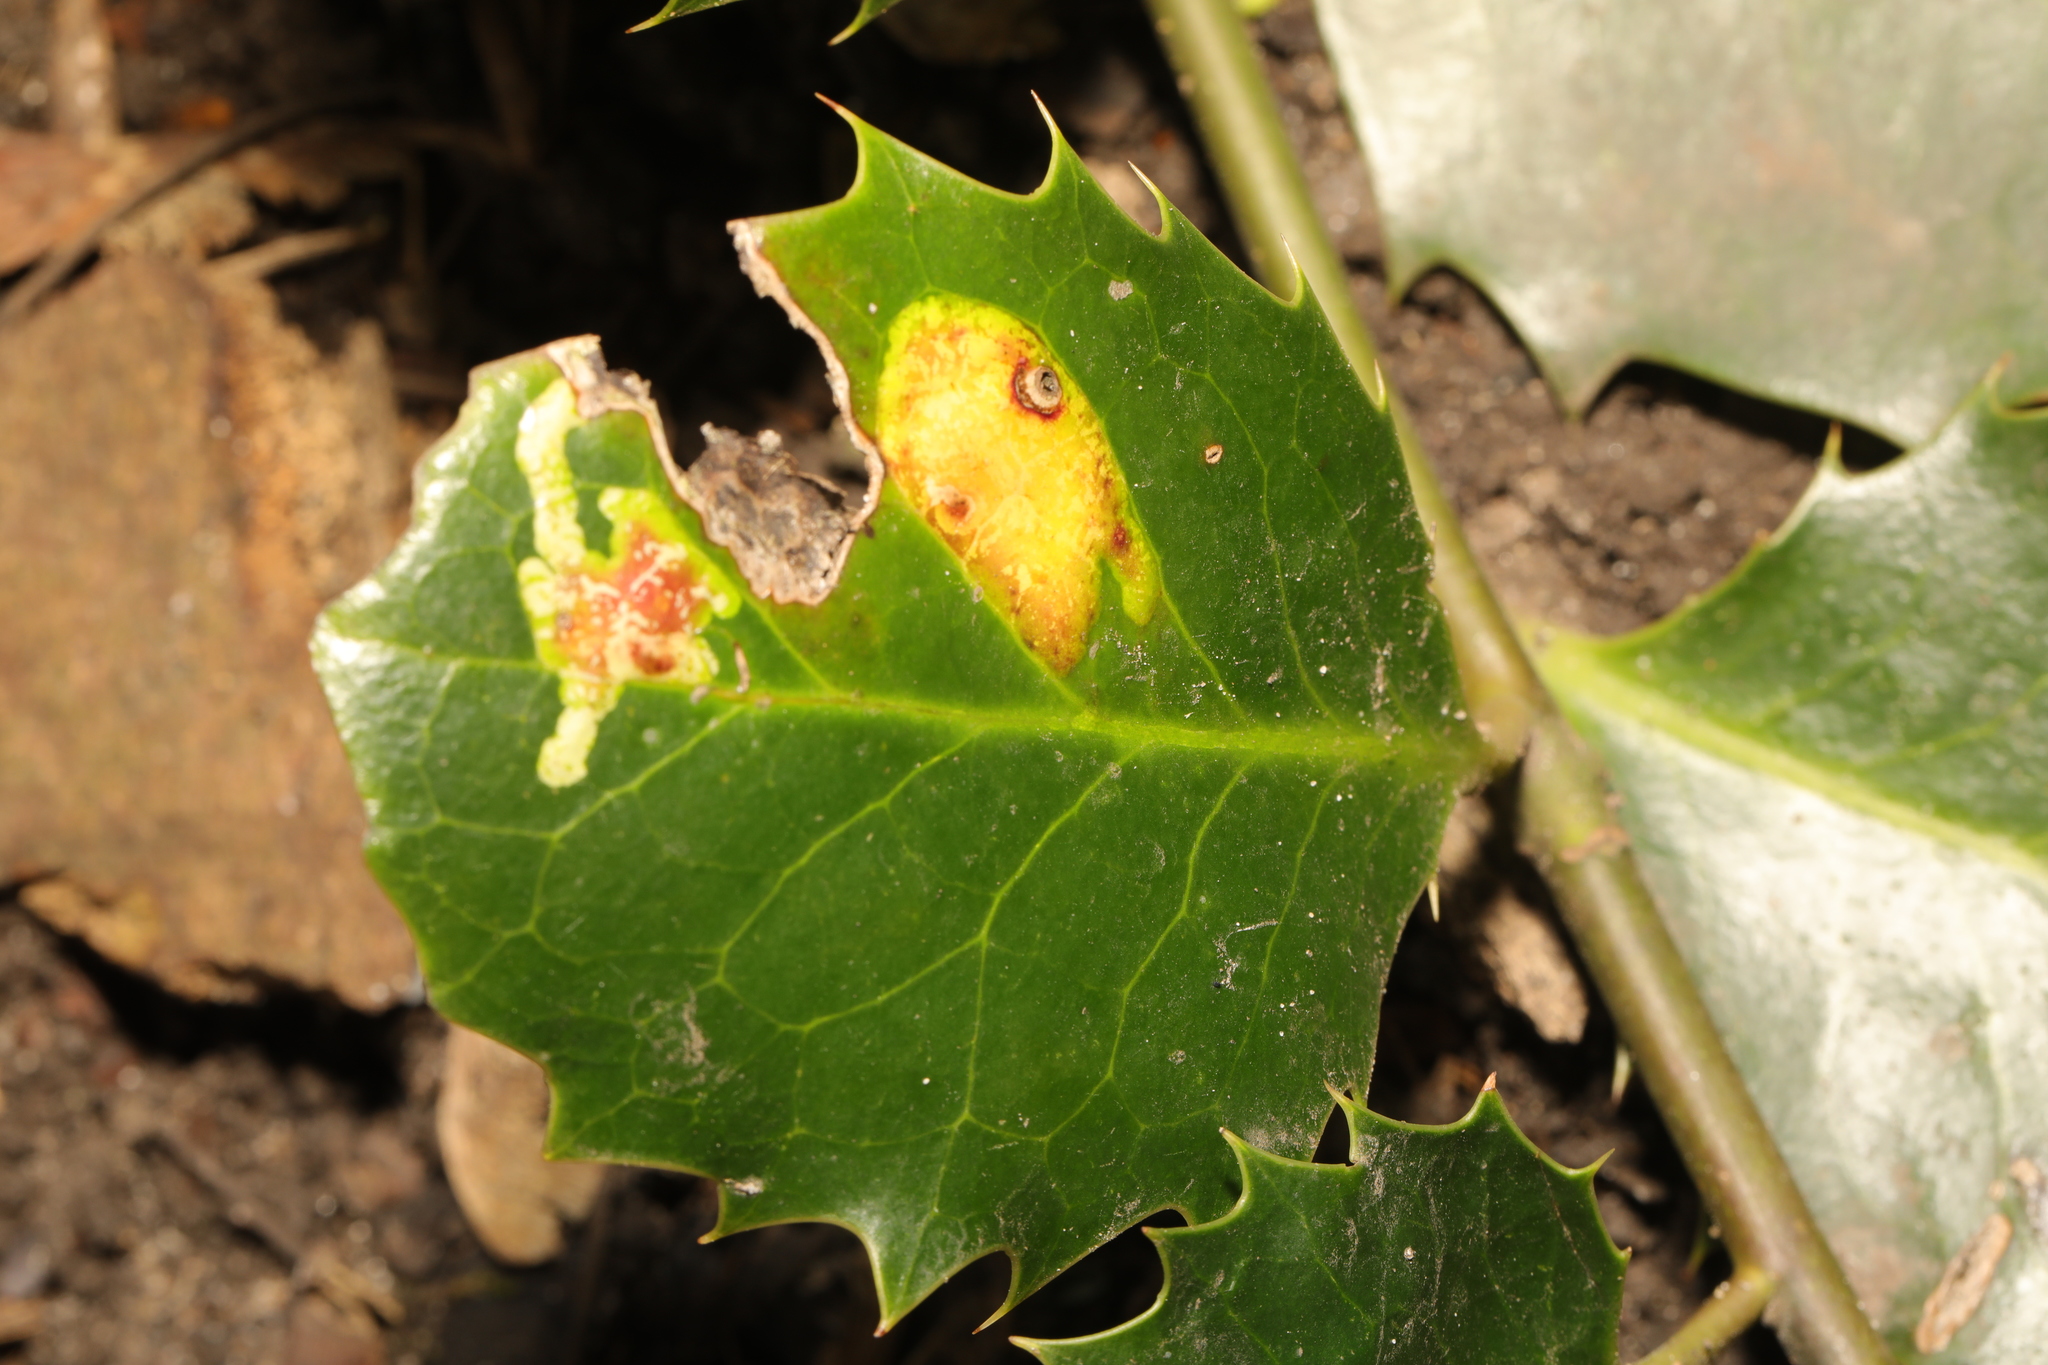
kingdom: Animalia
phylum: Arthropoda
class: Insecta
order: Diptera
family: Agromyzidae
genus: Phytomyza
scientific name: Phytomyza ilicis
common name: Holly leafminer
